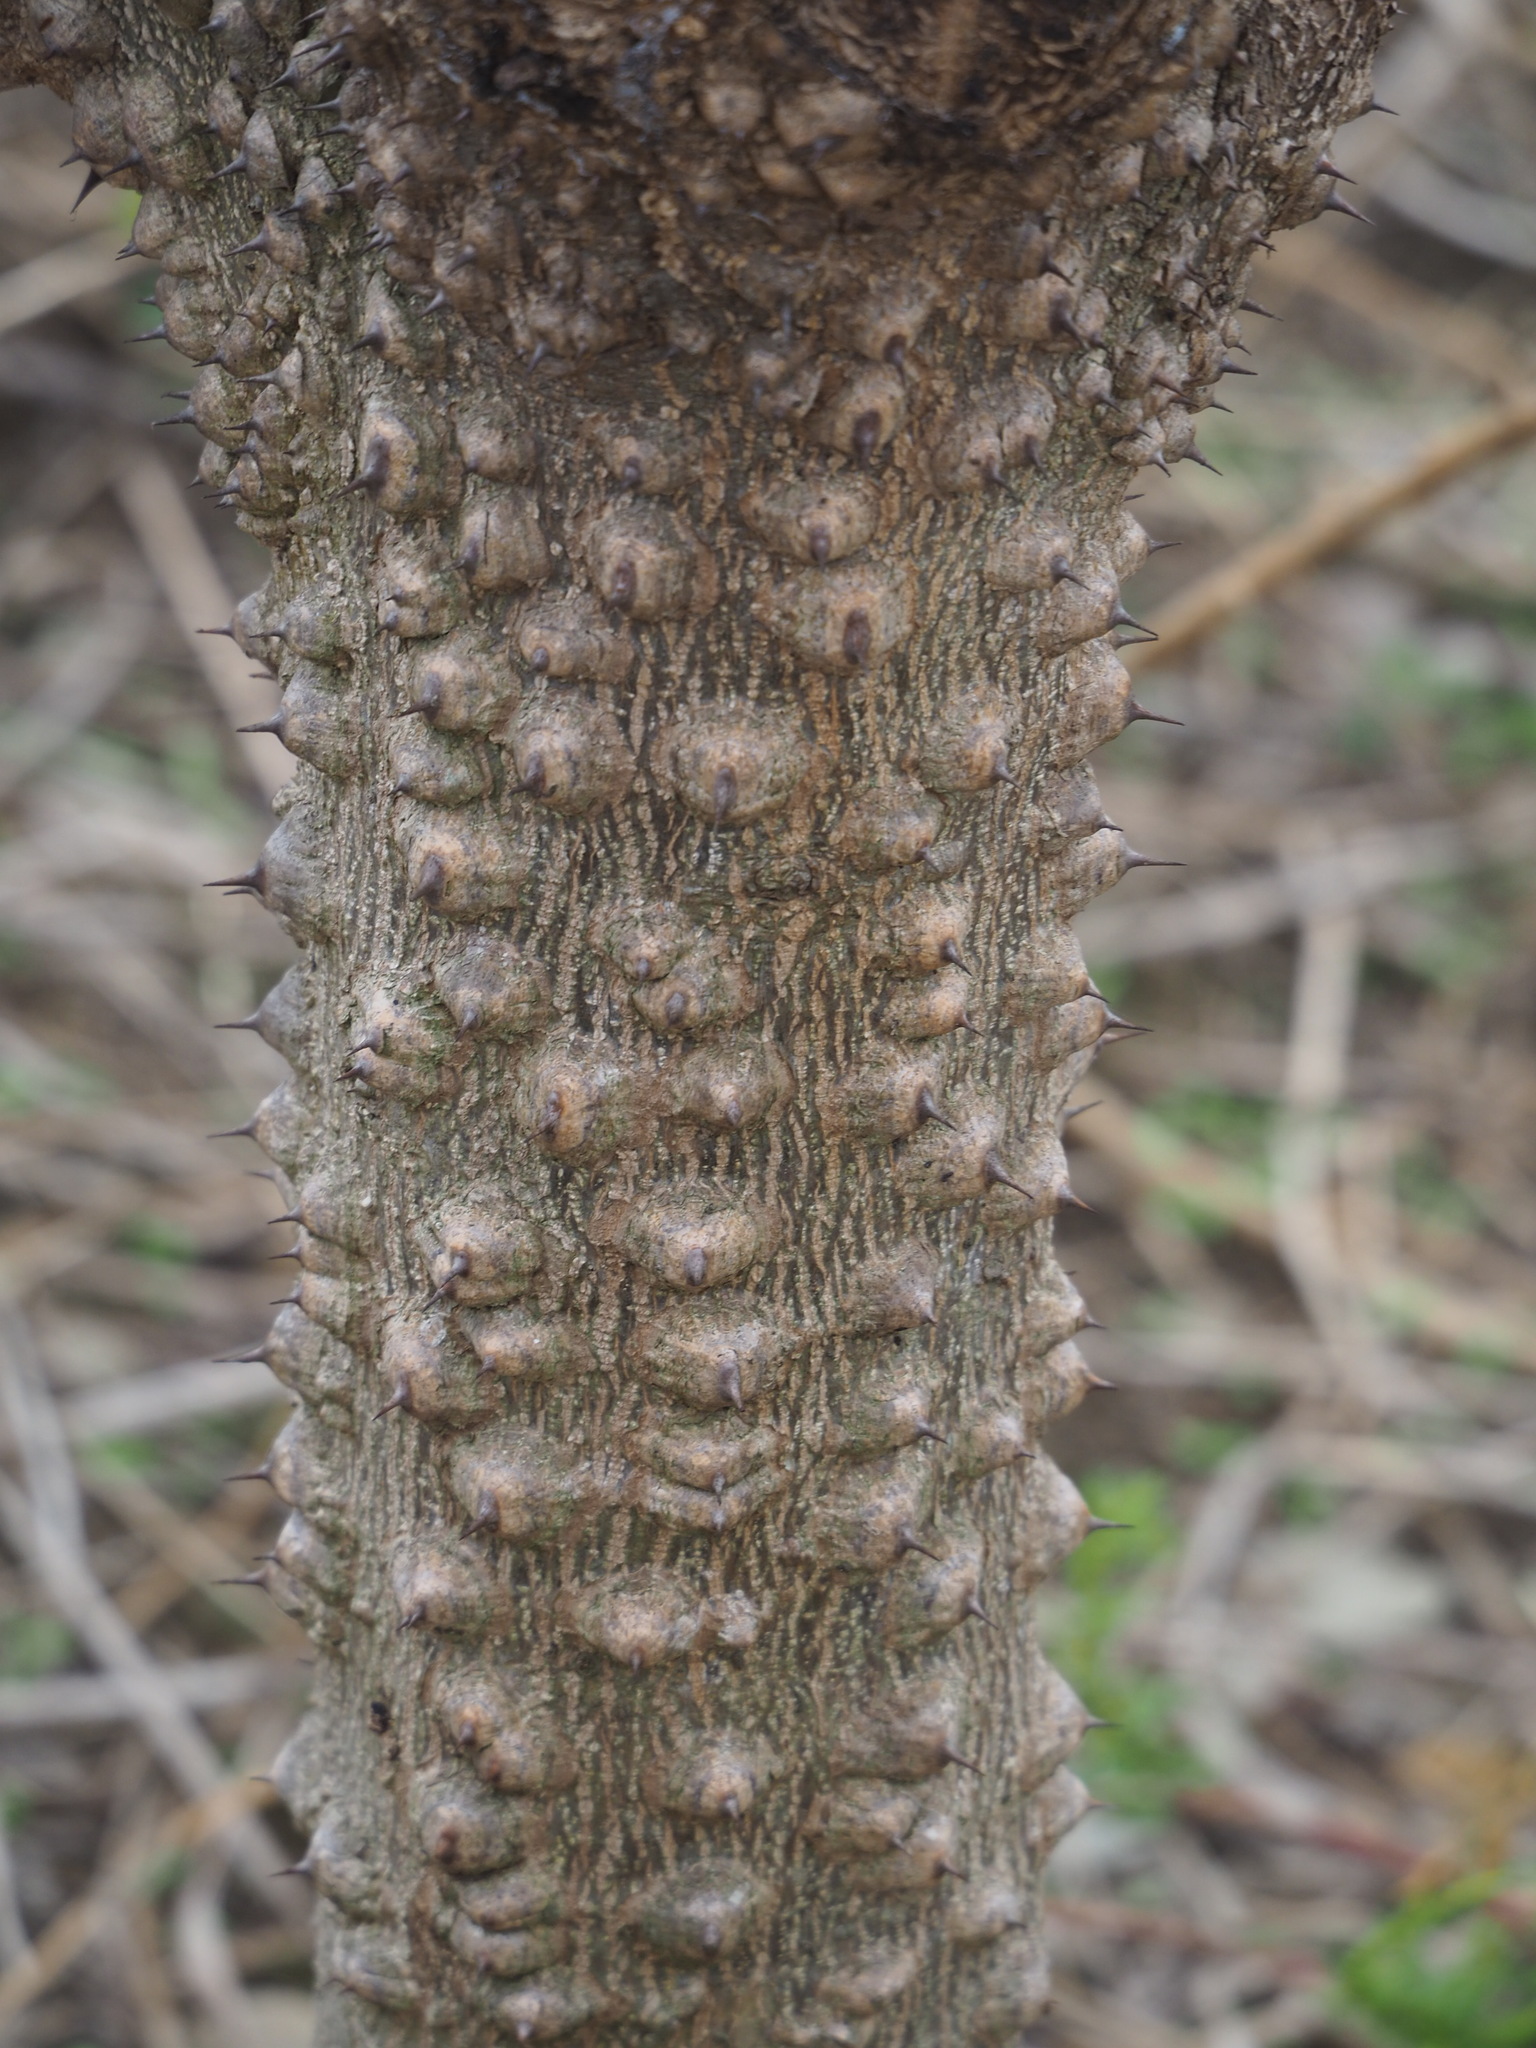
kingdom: Plantae
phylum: Tracheophyta
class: Magnoliopsida
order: Sapindales
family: Rutaceae
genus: Zanthoxylum
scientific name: Zanthoxylum ailanthoides
